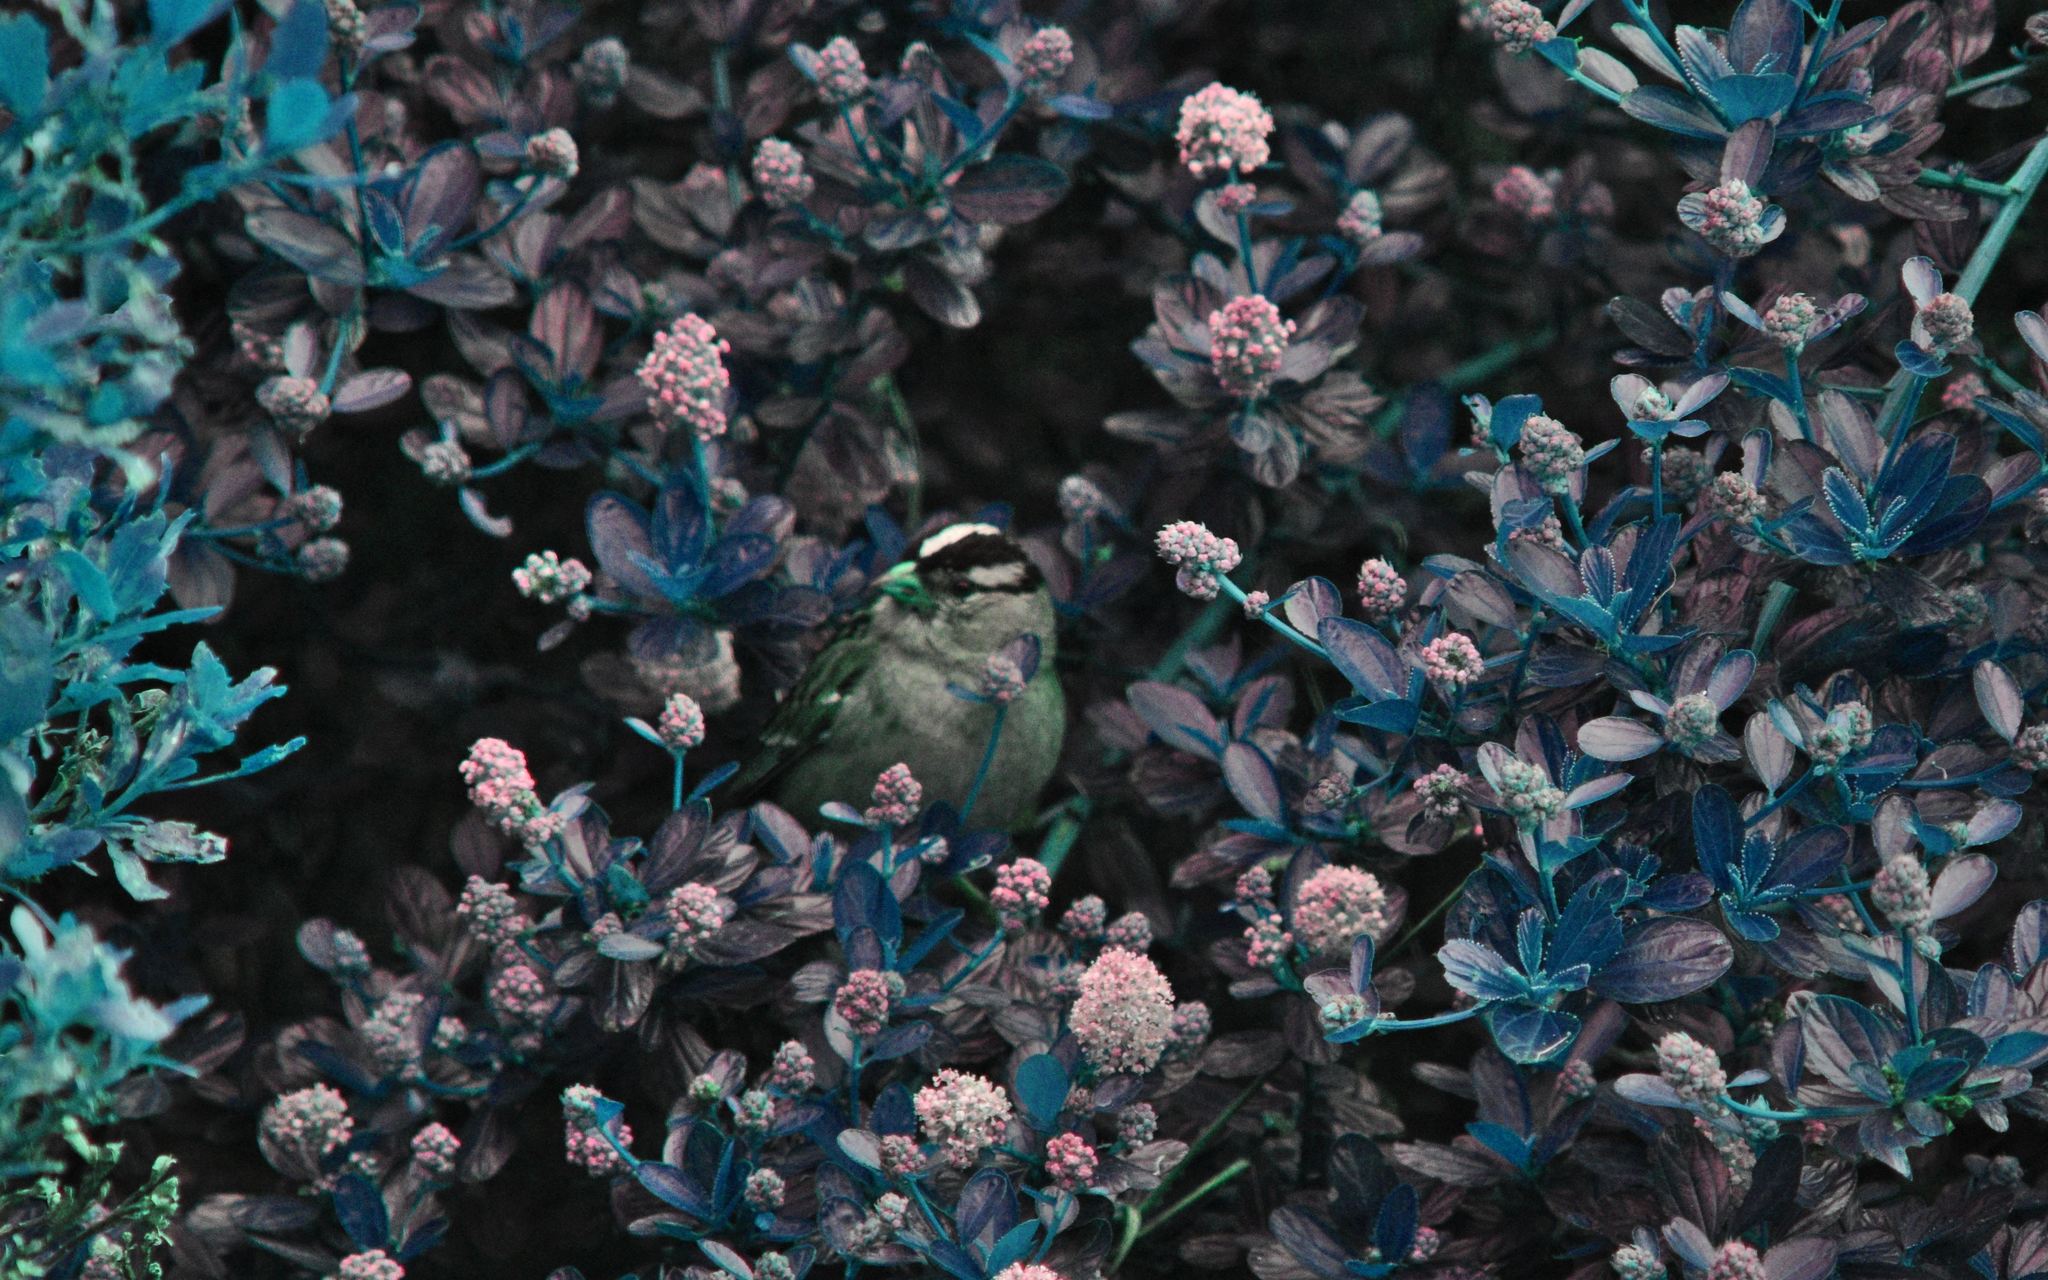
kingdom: Animalia
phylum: Chordata
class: Aves
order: Passeriformes
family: Passerellidae
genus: Zonotrichia
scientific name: Zonotrichia leucophrys
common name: White-crowned sparrow
